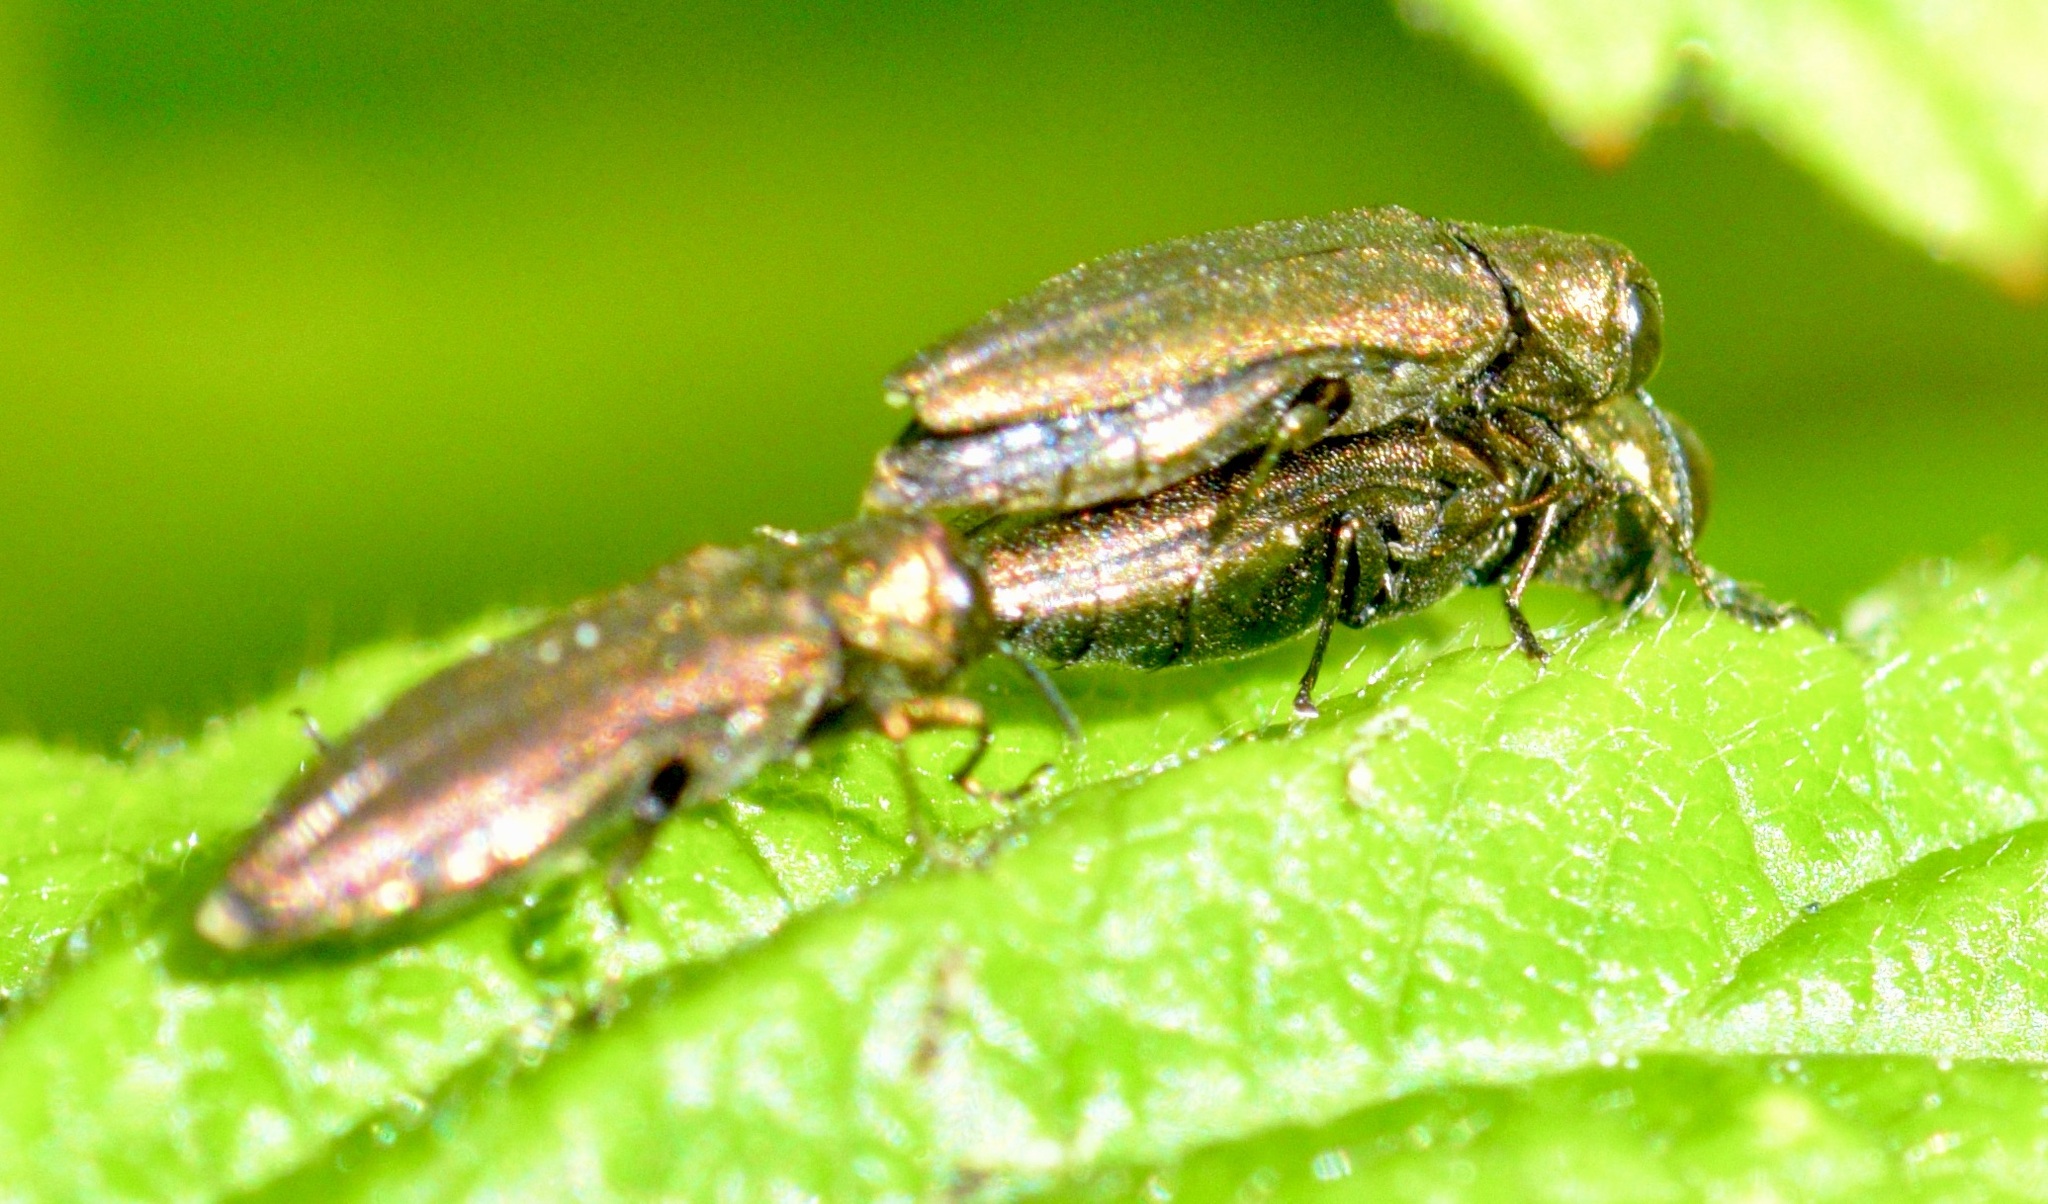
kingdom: Animalia
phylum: Arthropoda
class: Insecta
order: Coleoptera
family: Buprestidae
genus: Agrilus
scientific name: Agrilus cuprescens
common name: Rose stem girdler
